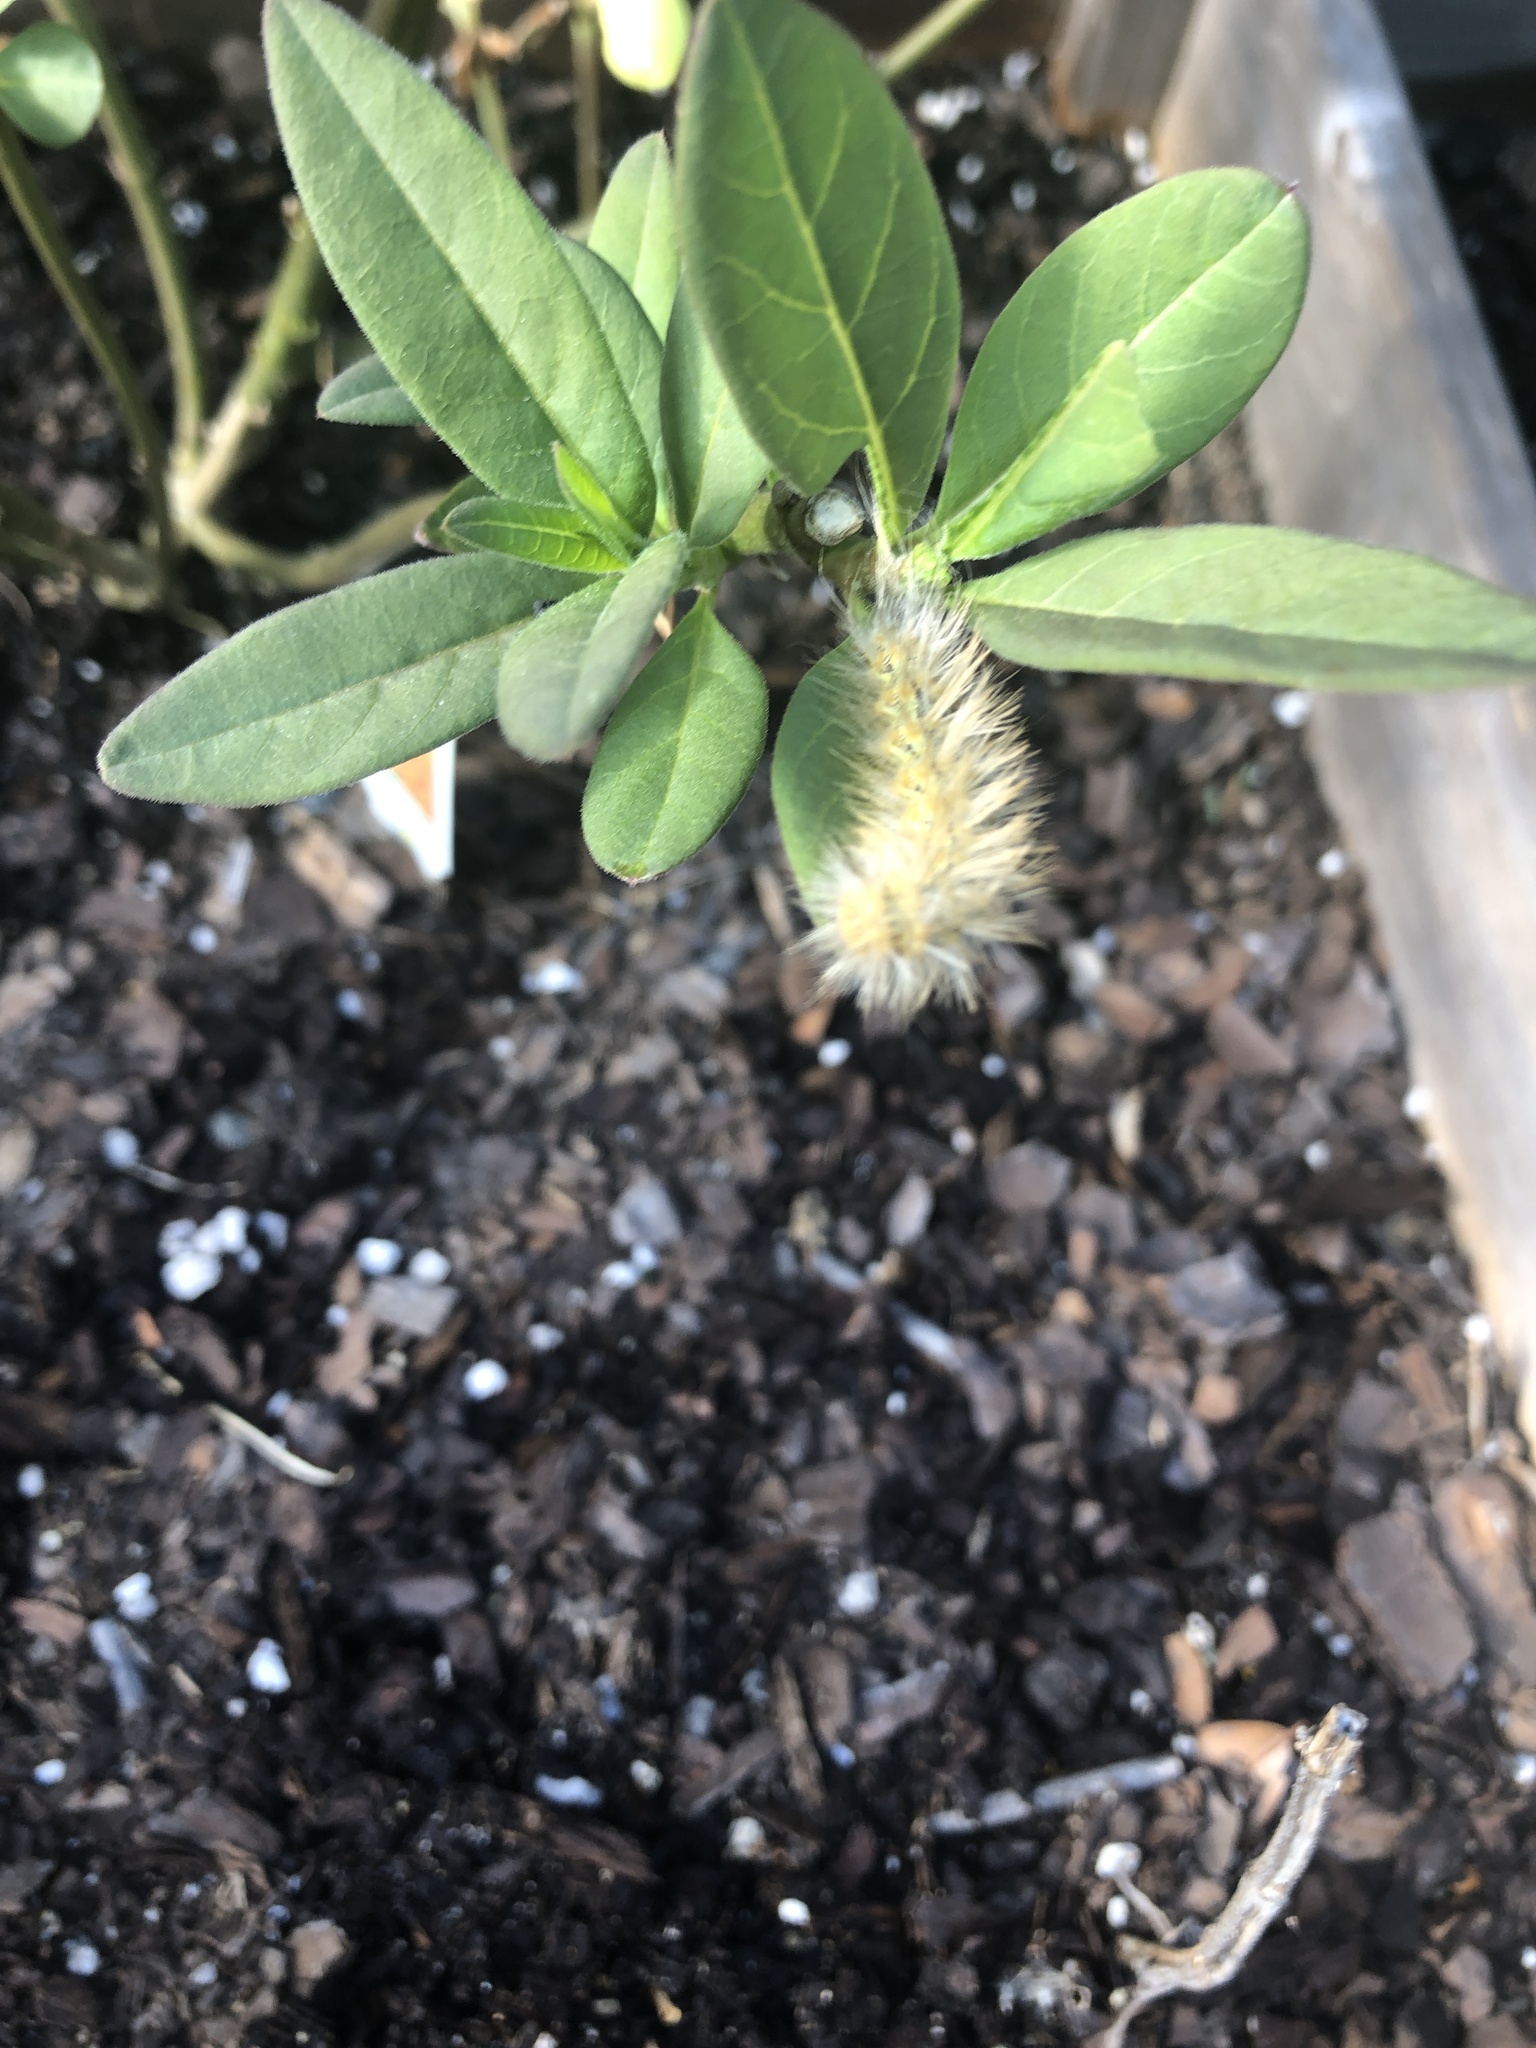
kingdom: Animalia
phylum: Arthropoda
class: Insecta
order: Lepidoptera
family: Erebidae
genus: Estigmene
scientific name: Estigmene acrea
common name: Salt marsh moth
